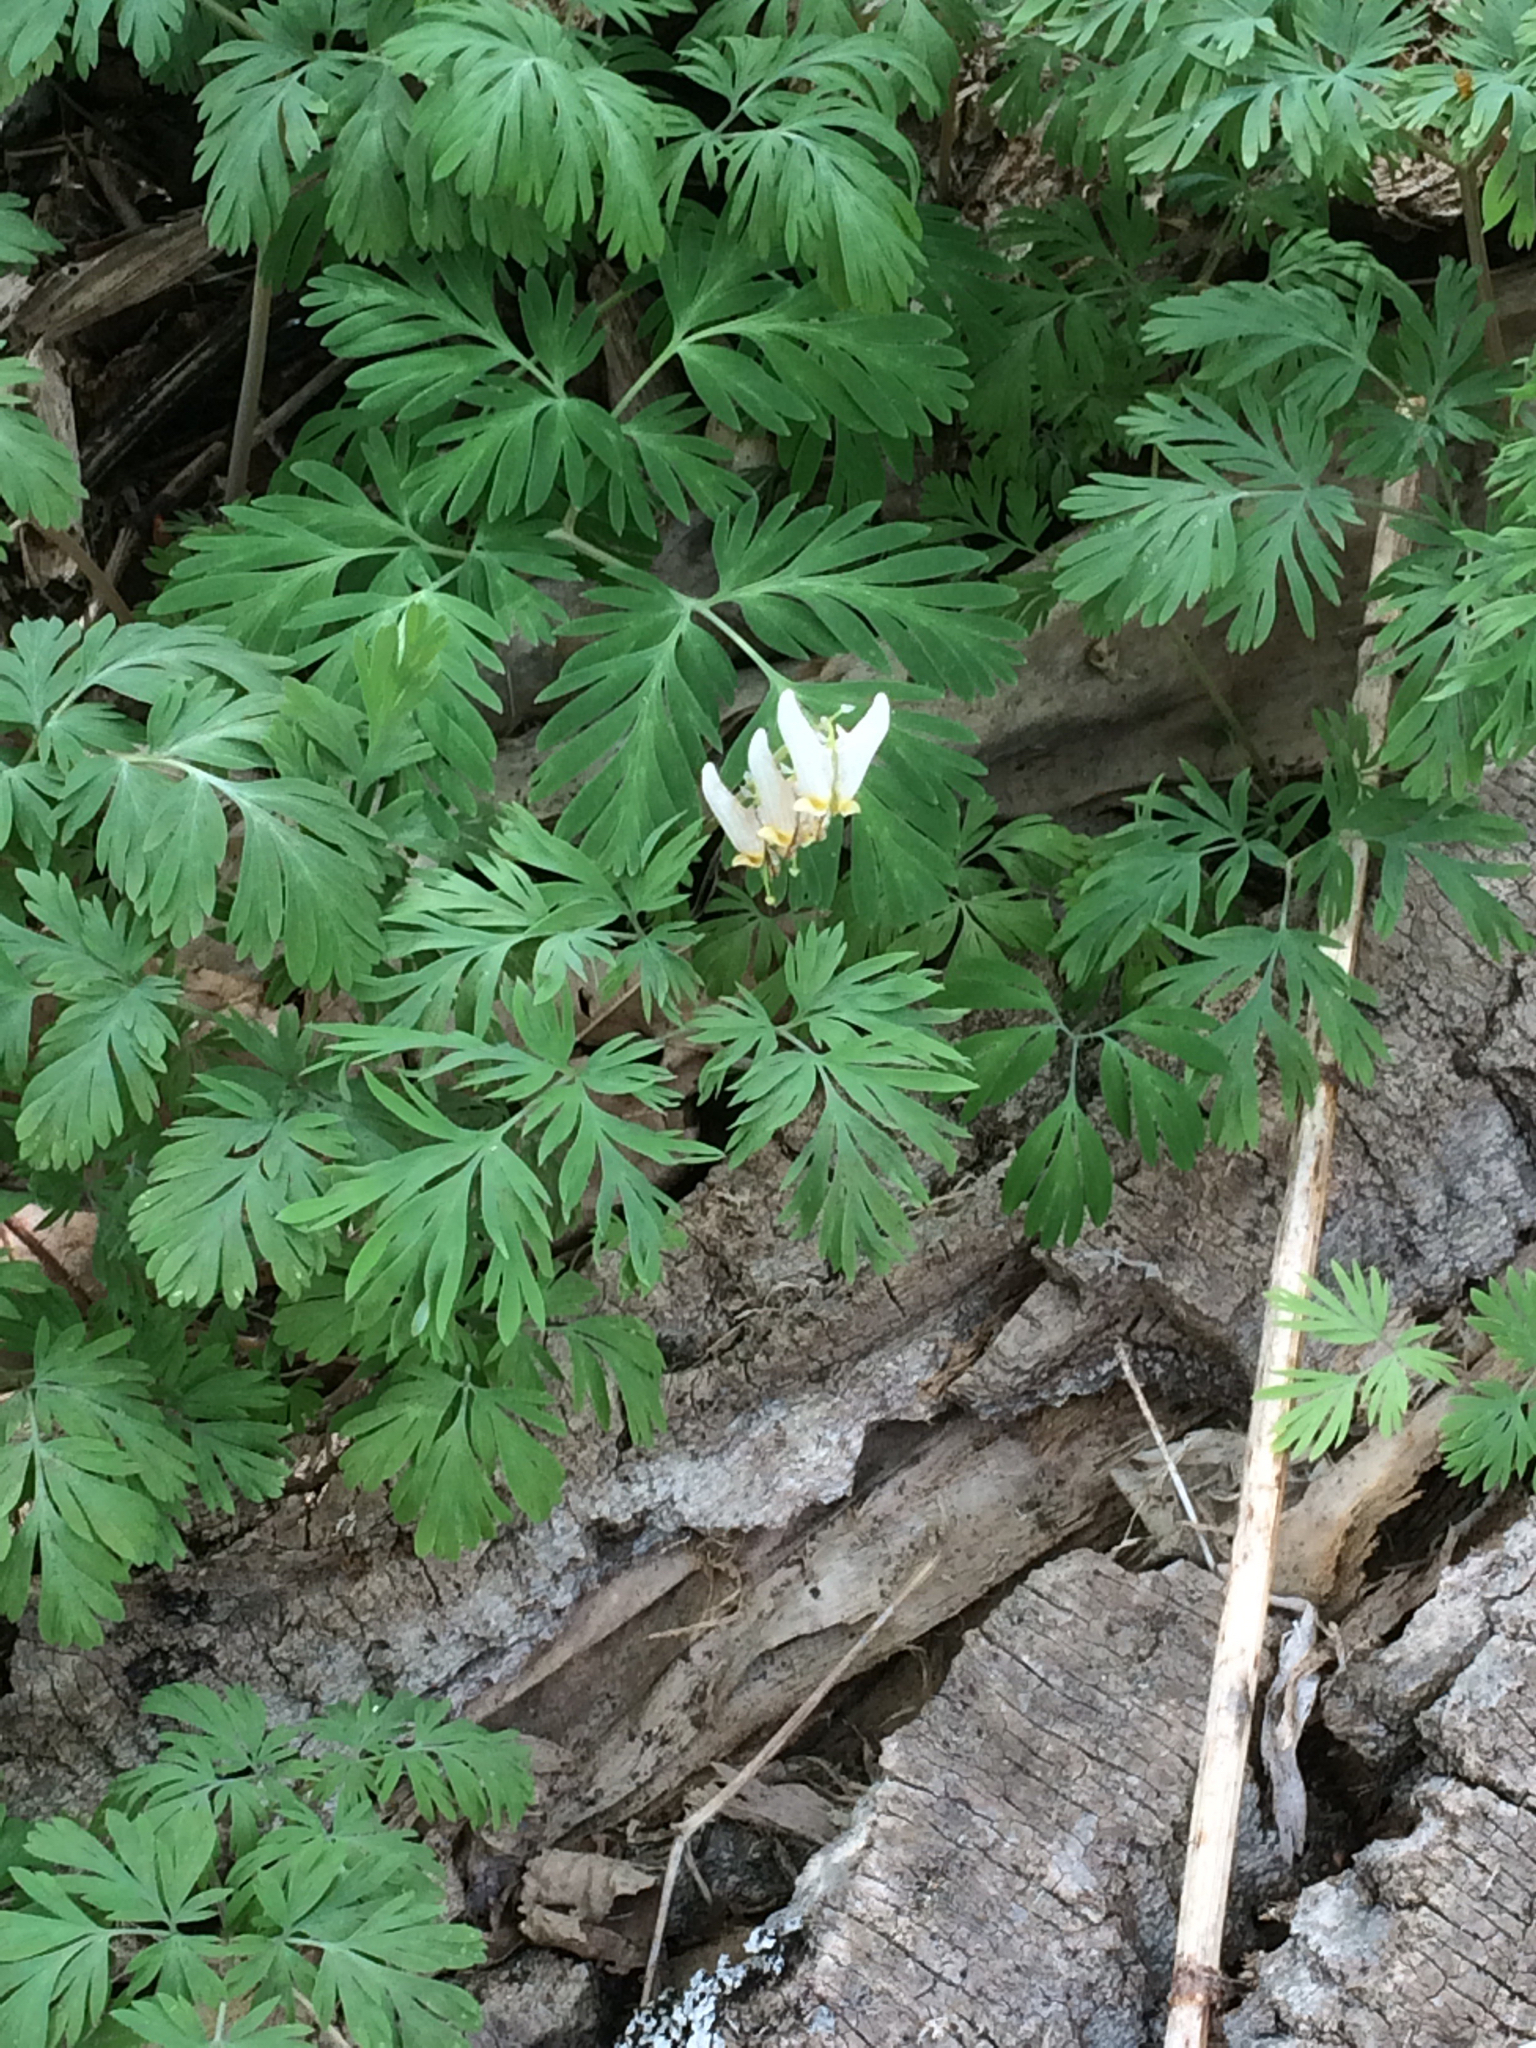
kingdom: Plantae
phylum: Tracheophyta
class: Magnoliopsida
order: Ranunculales
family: Papaveraceae
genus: Dicentra
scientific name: Dicentra cucullaria
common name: Dutchman's breeches
